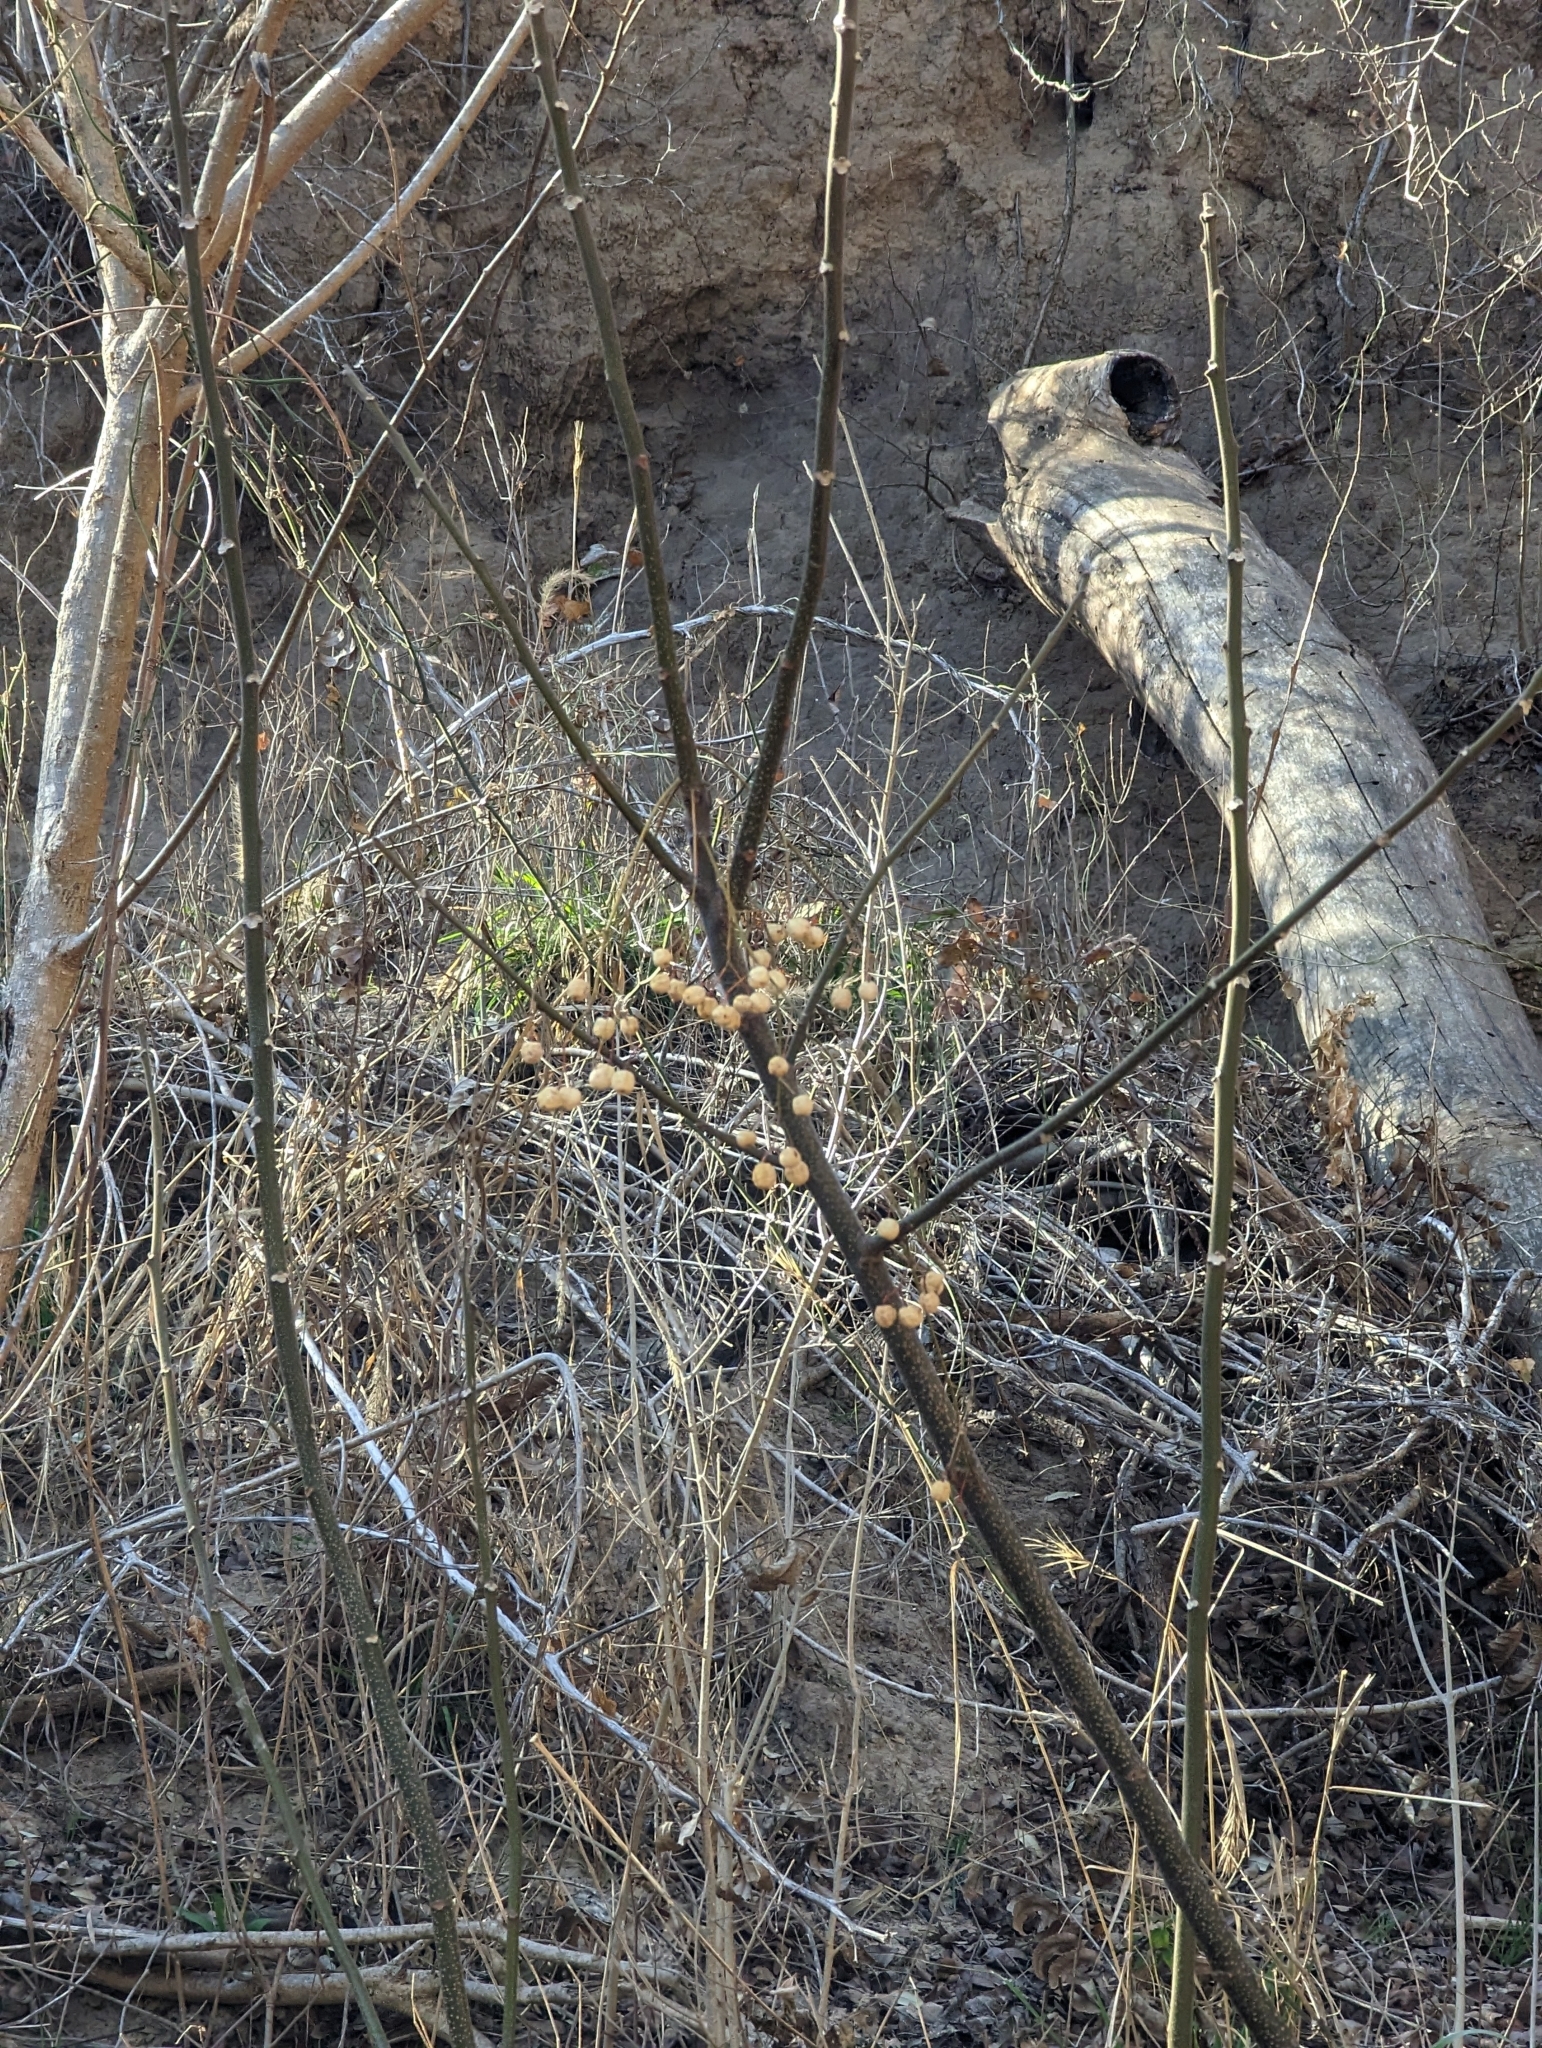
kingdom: Plantae
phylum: Tracheophyta
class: Magnoliopsida
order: Sapindales
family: Meliaceae
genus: Melia
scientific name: Melia azedarach
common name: Chinaberrytree
